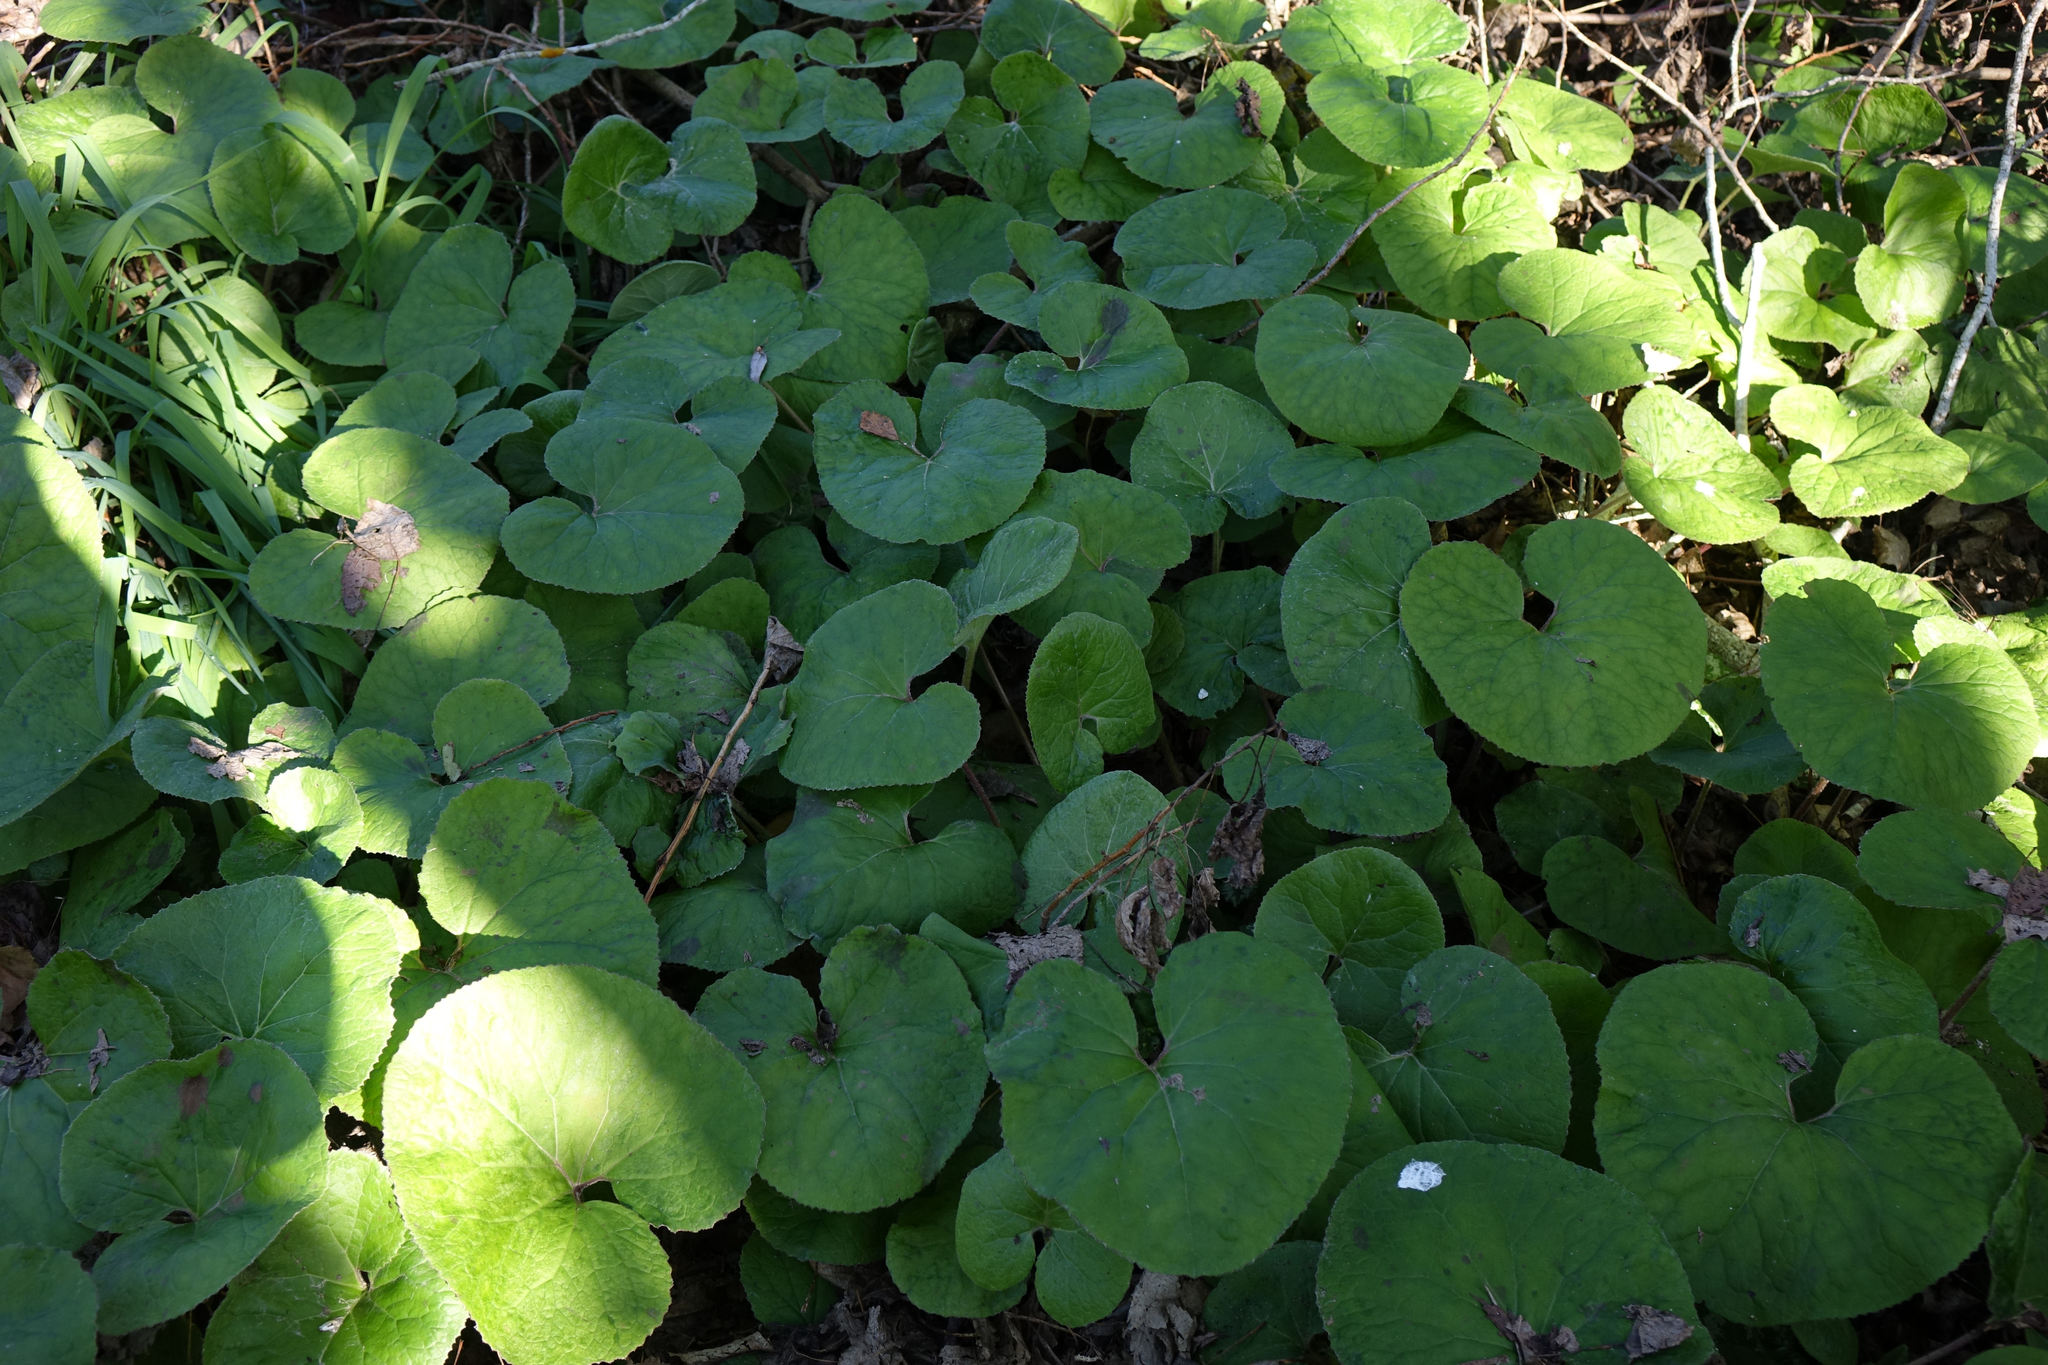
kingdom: Plantae
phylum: Tracheophyta
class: Magnoliopsida
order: Asterales
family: Asteraceae
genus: Petasites
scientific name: Petasites pyrenaicus
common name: Winter heliotrope
